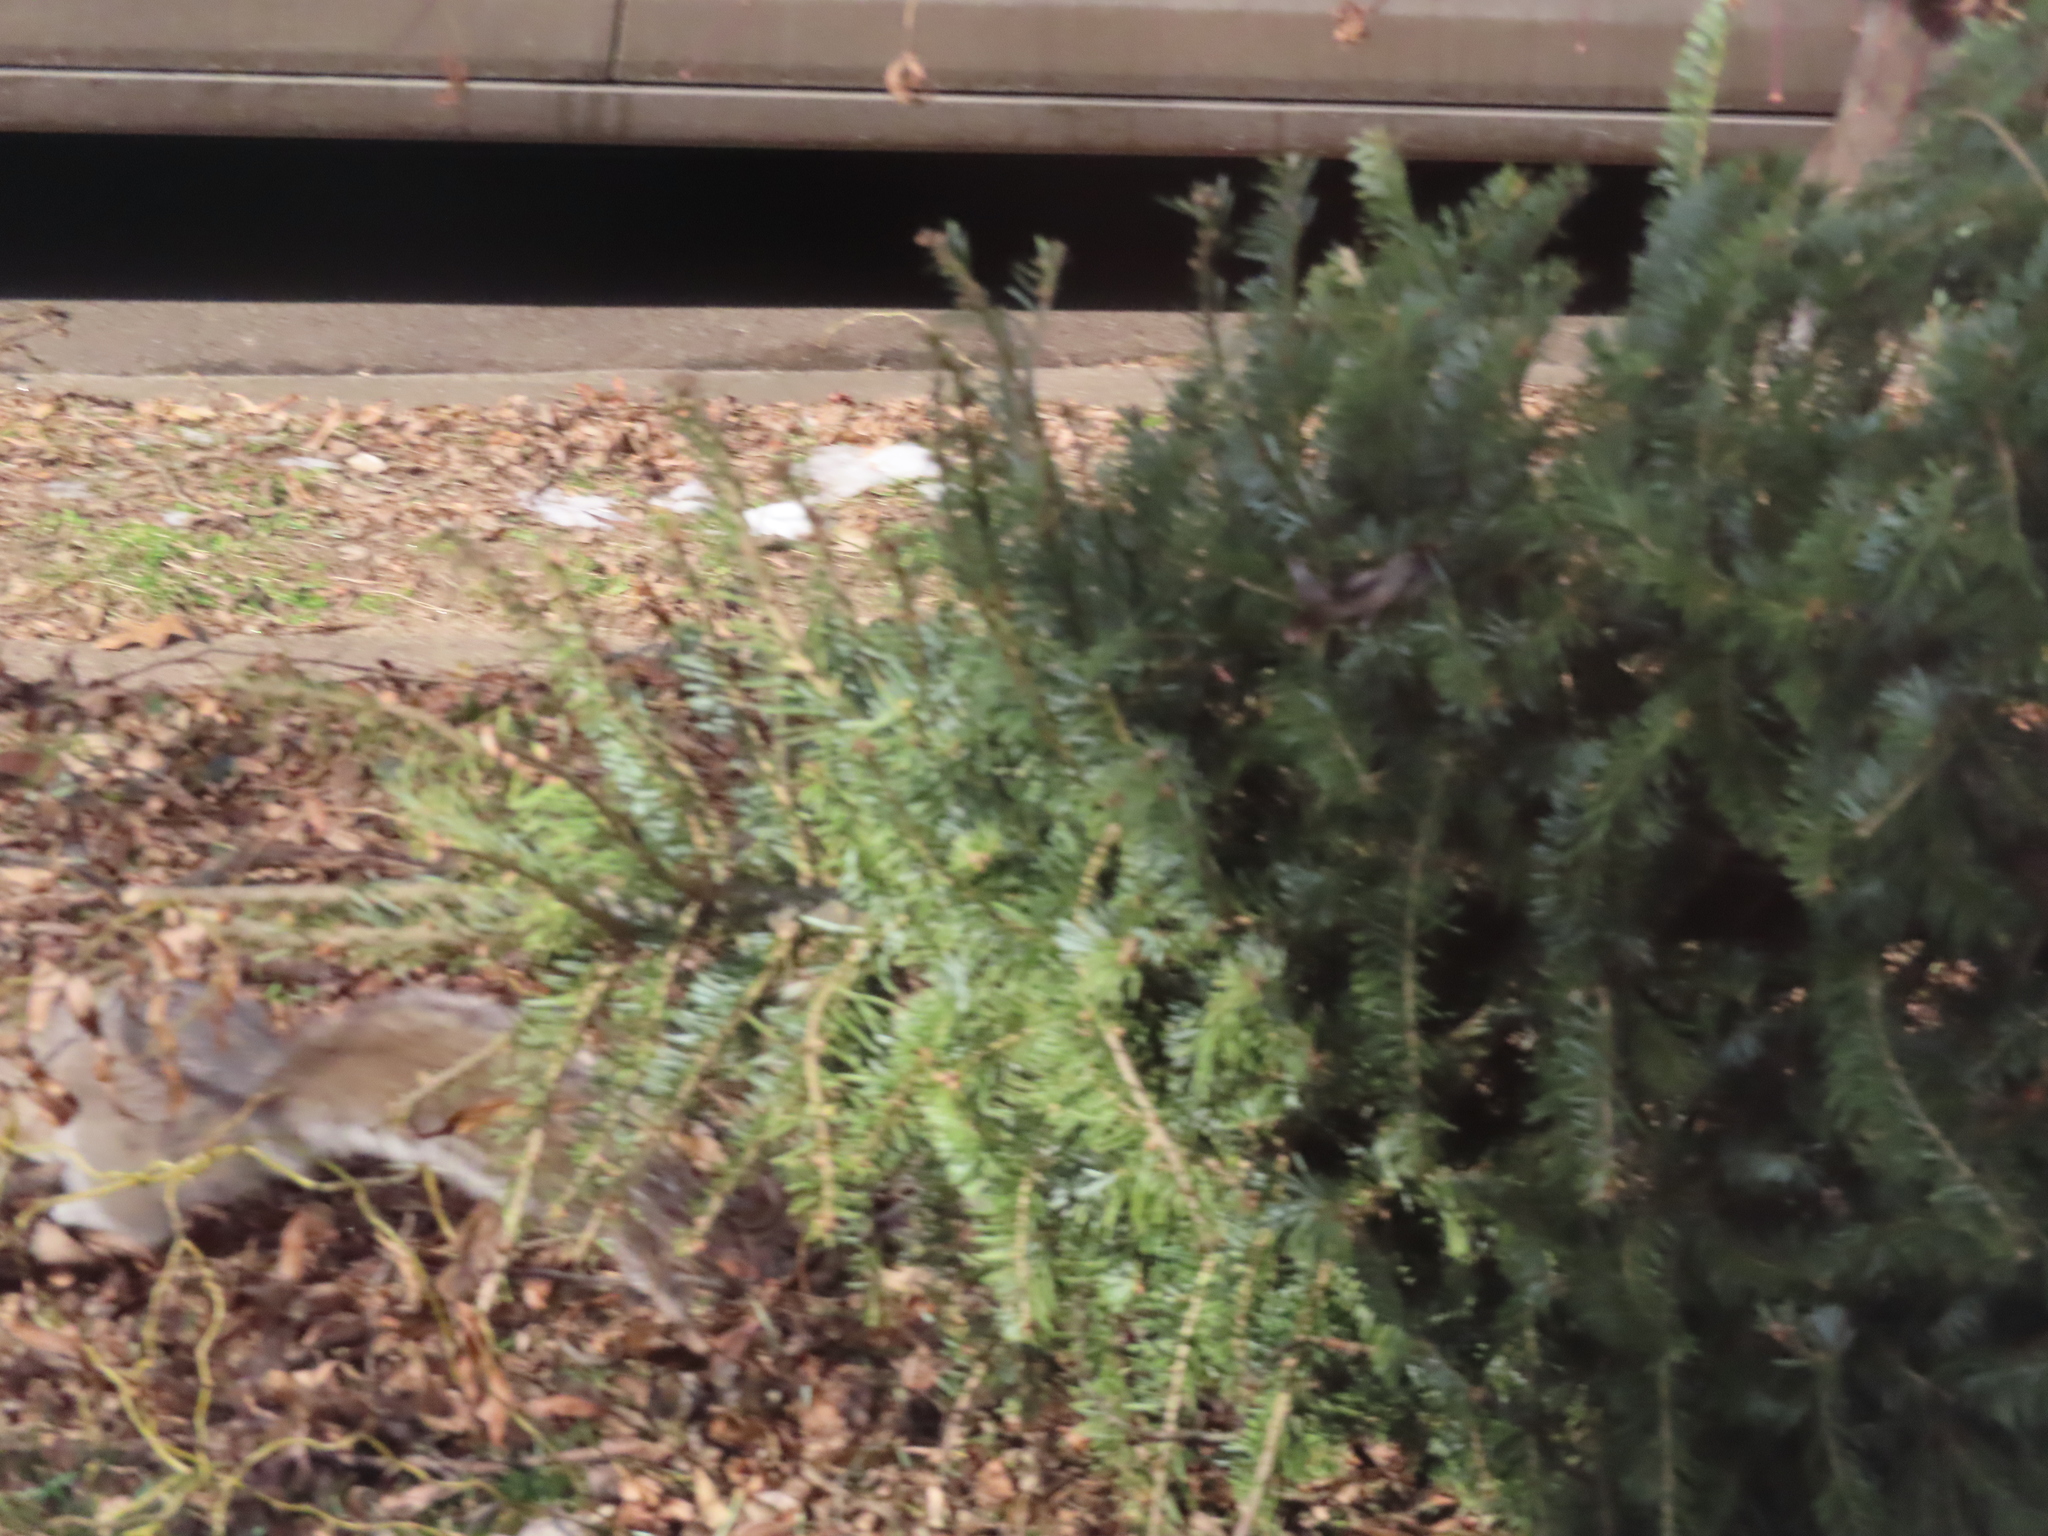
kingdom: Animalia
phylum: Chordata
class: Mammalia
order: Rodentia
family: Sciuridae
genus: Sciurus
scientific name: Sciurus carolinensis
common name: Eastern gray squirrel
